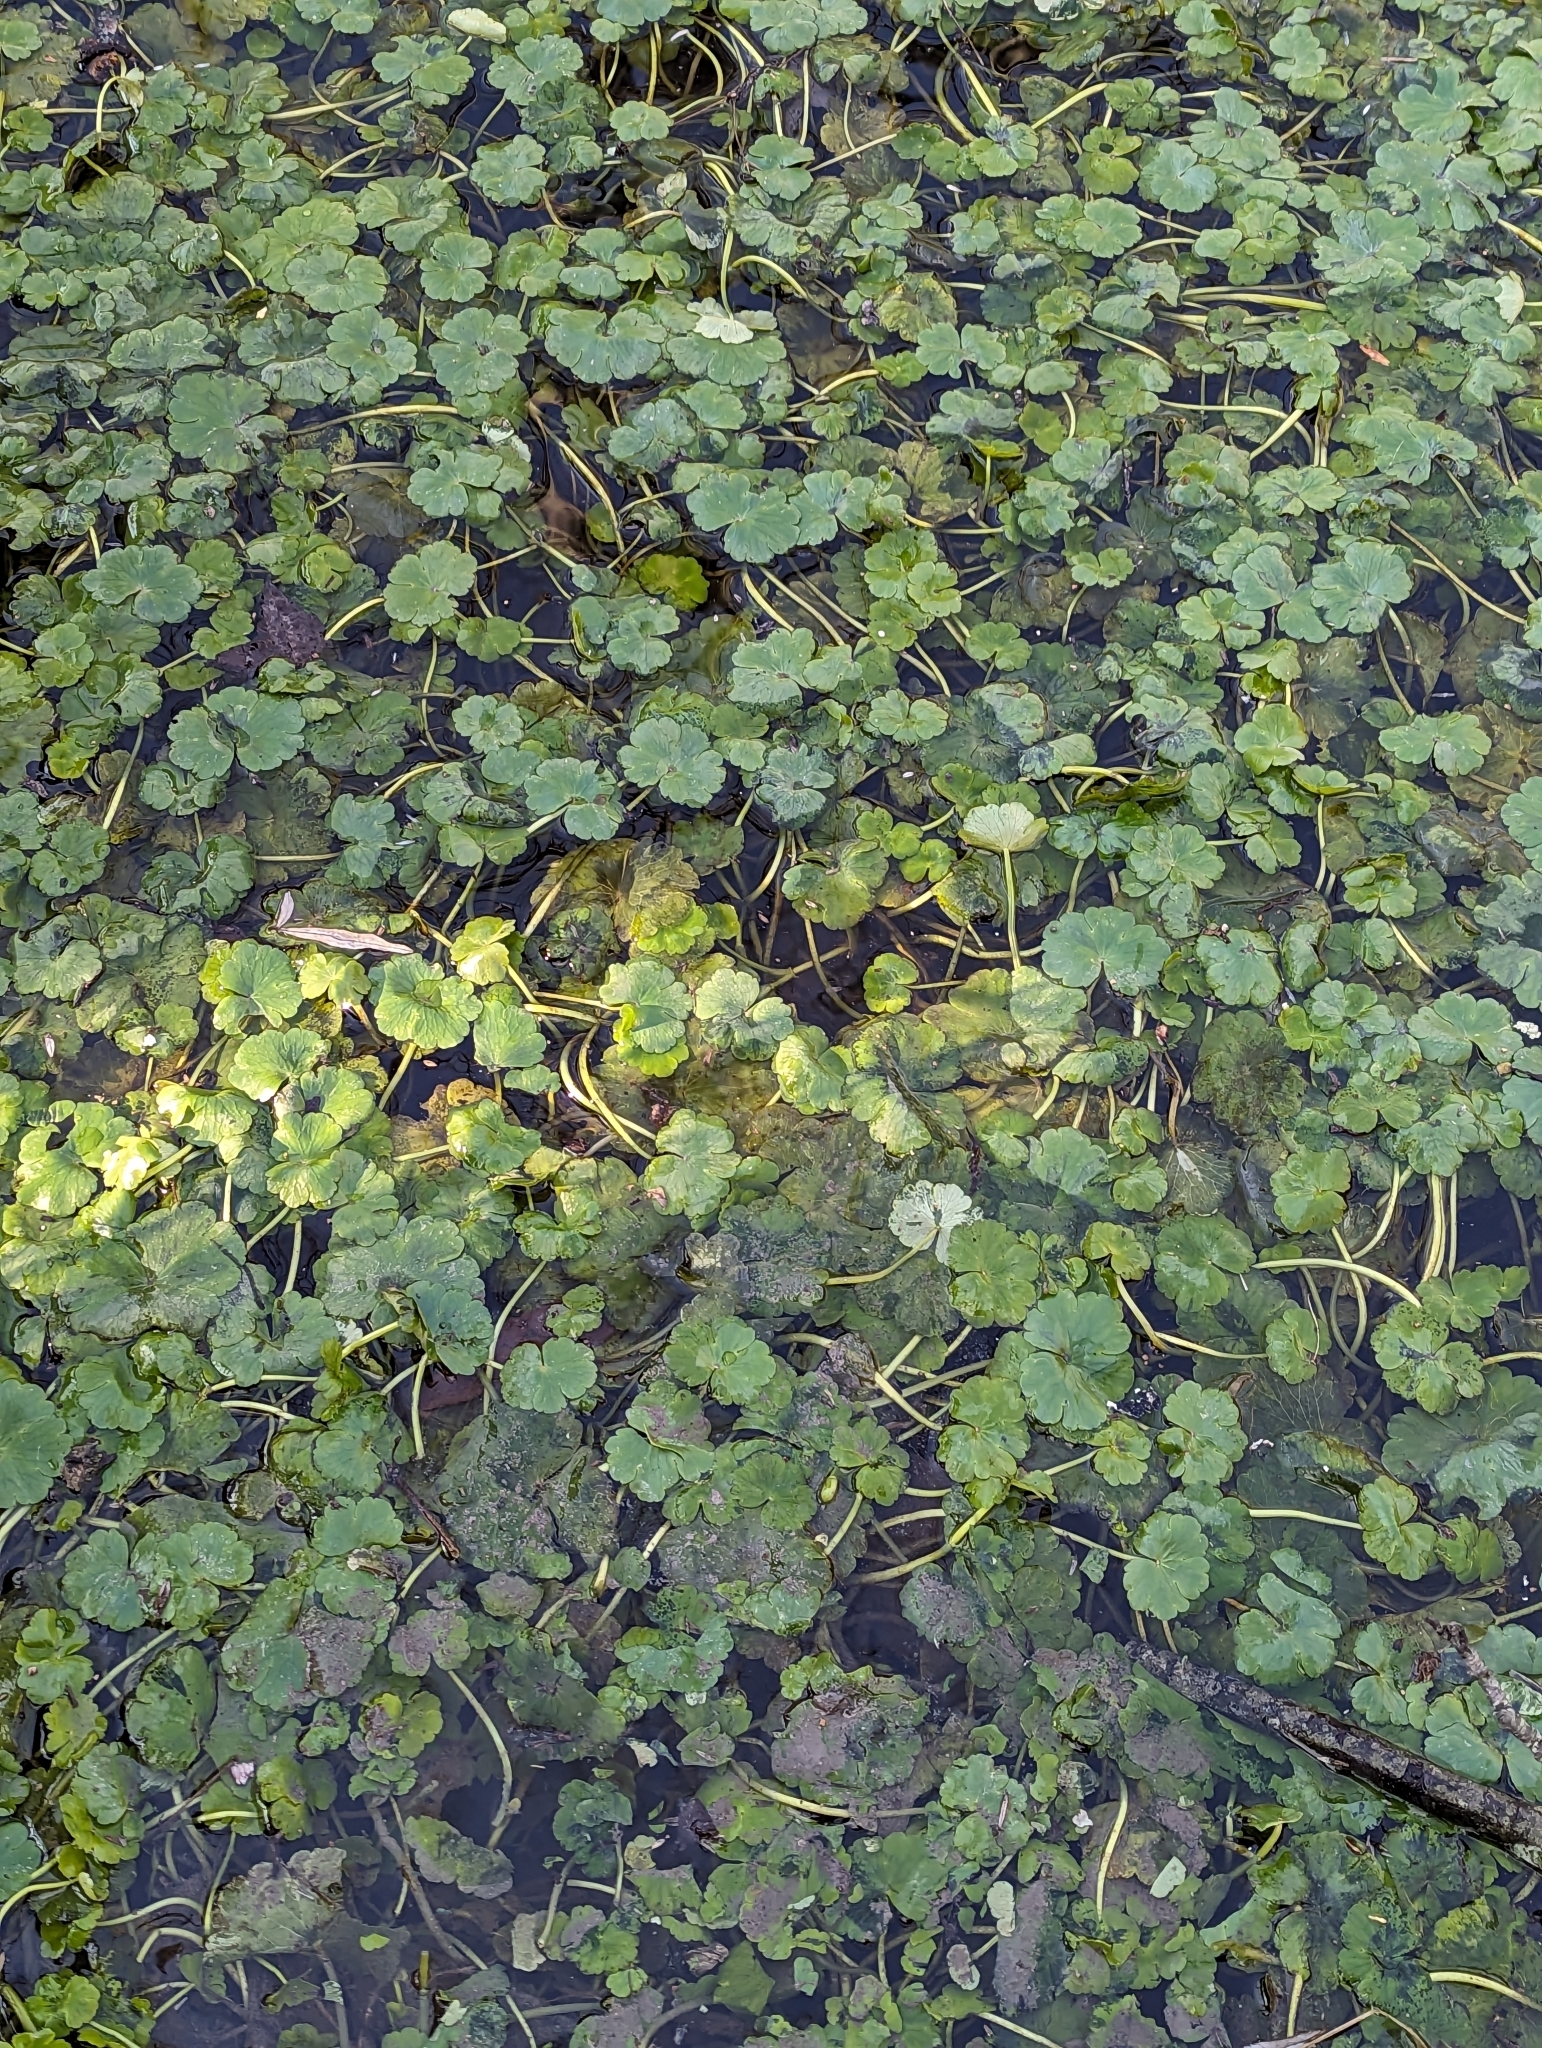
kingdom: Plantae
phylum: Tracheophyta
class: Magnoliopsida
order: Apiales
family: Araliaceae
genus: Hydrocotyle
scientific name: Hydrocotyle ranunculoides
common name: Floating pennywort
